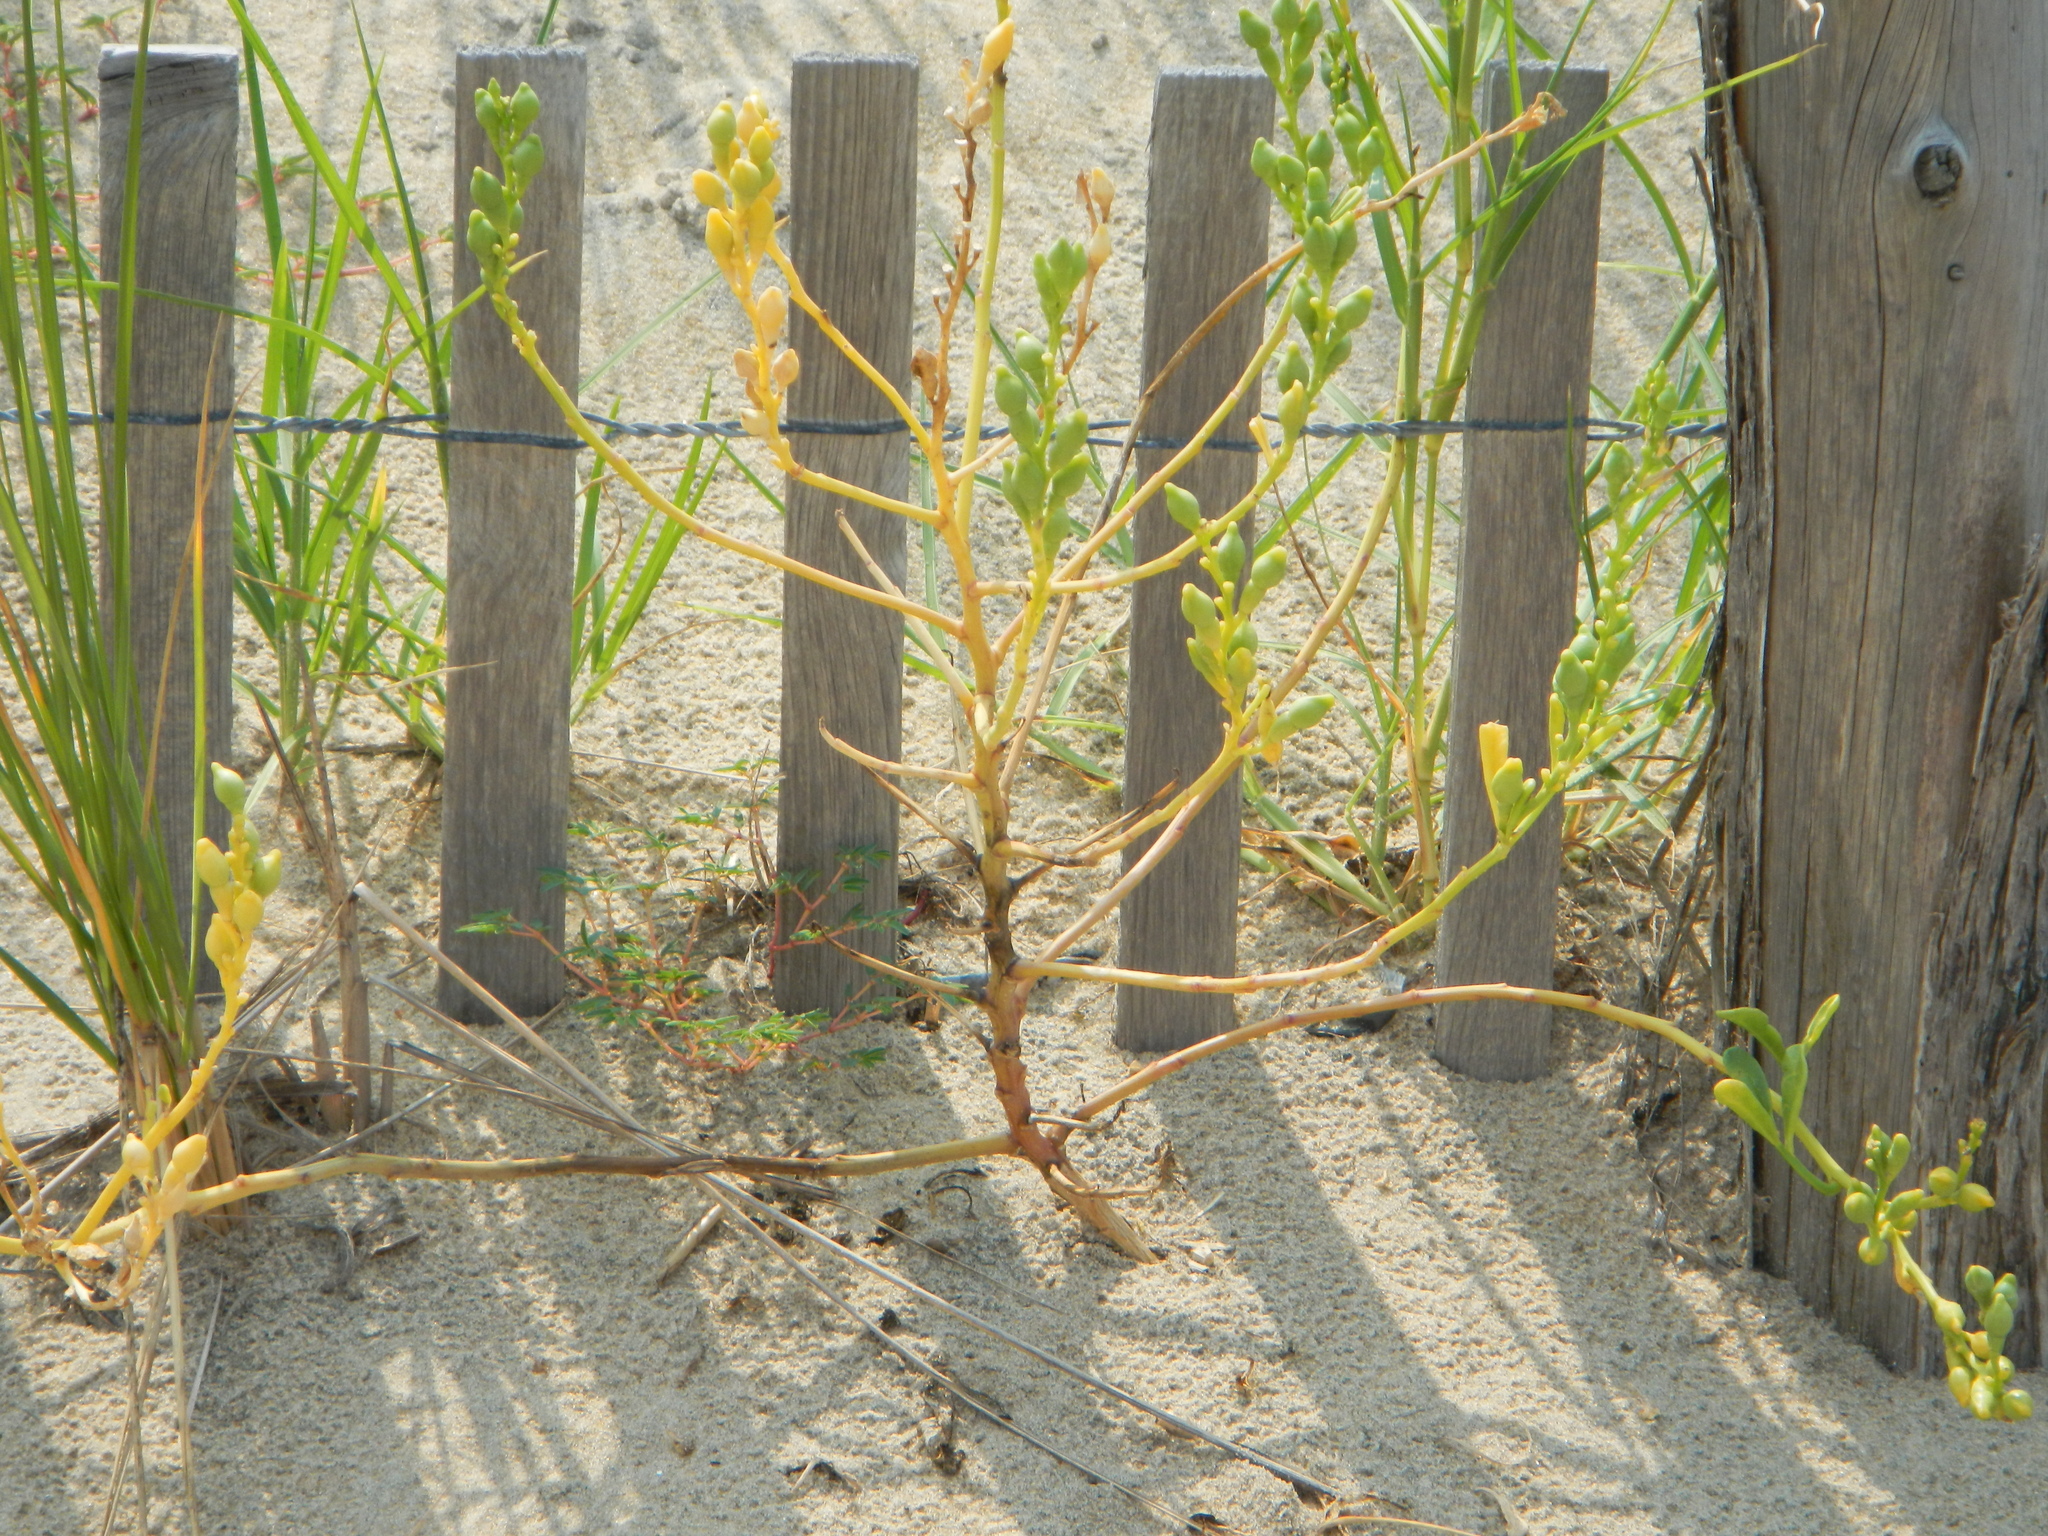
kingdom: Plantae
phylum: Tracheophyta
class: Magnoliopsida
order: Brassicales
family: Brassicaceae
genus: Cakile
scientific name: Cakile edentula
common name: American sea rocket
